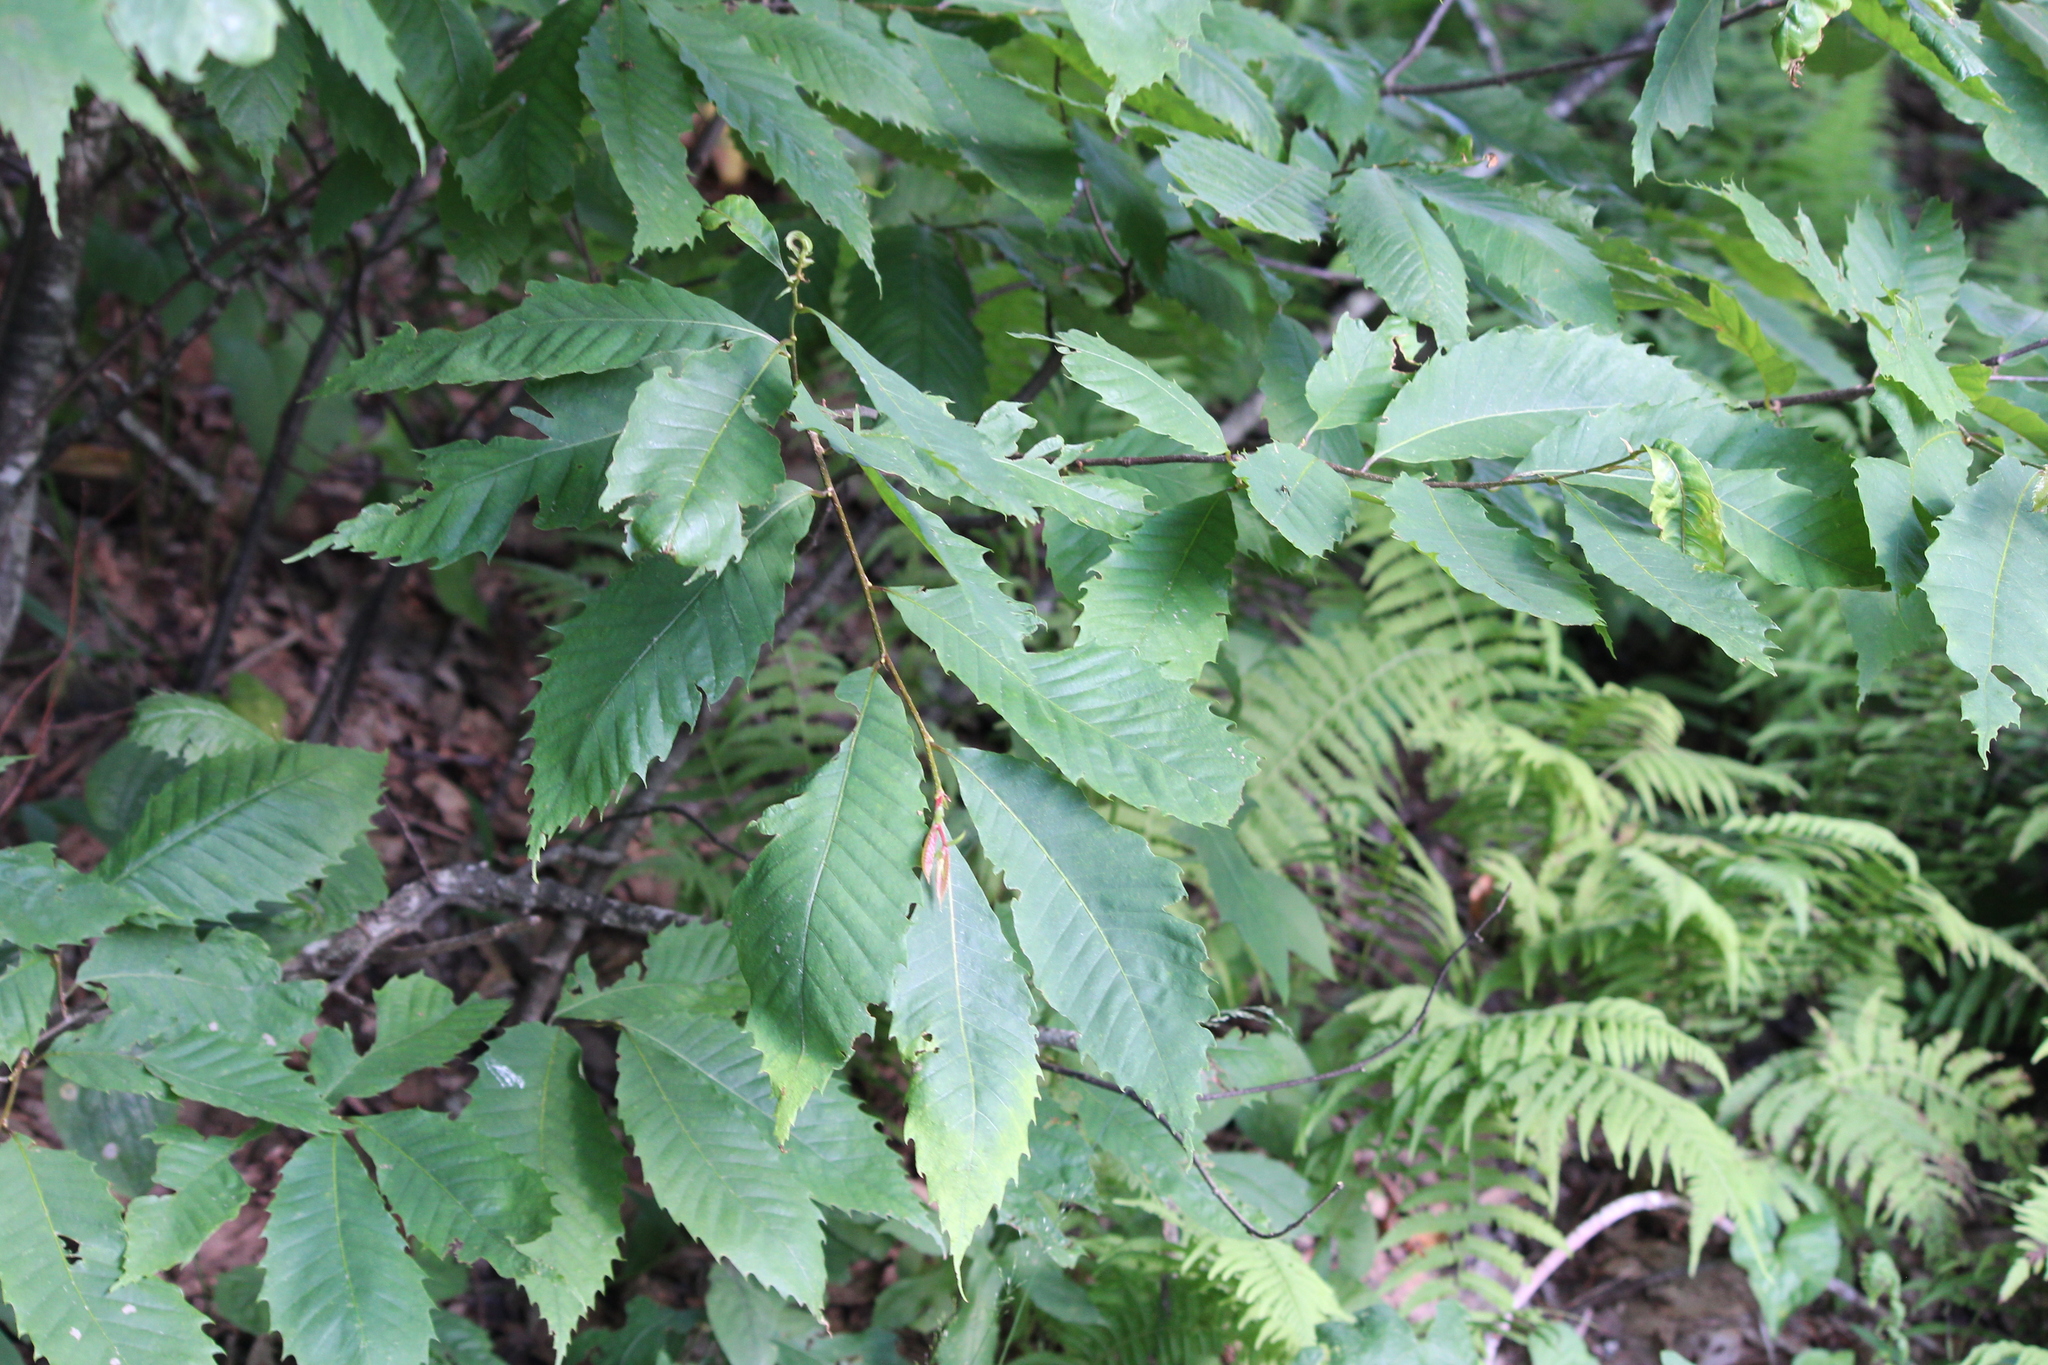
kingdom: Plantae
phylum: Tracheophyta
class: Magnoliopsida
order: Fagales
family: Fagaceae
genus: Castanea
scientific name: Castanea dentata
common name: American chestnut
